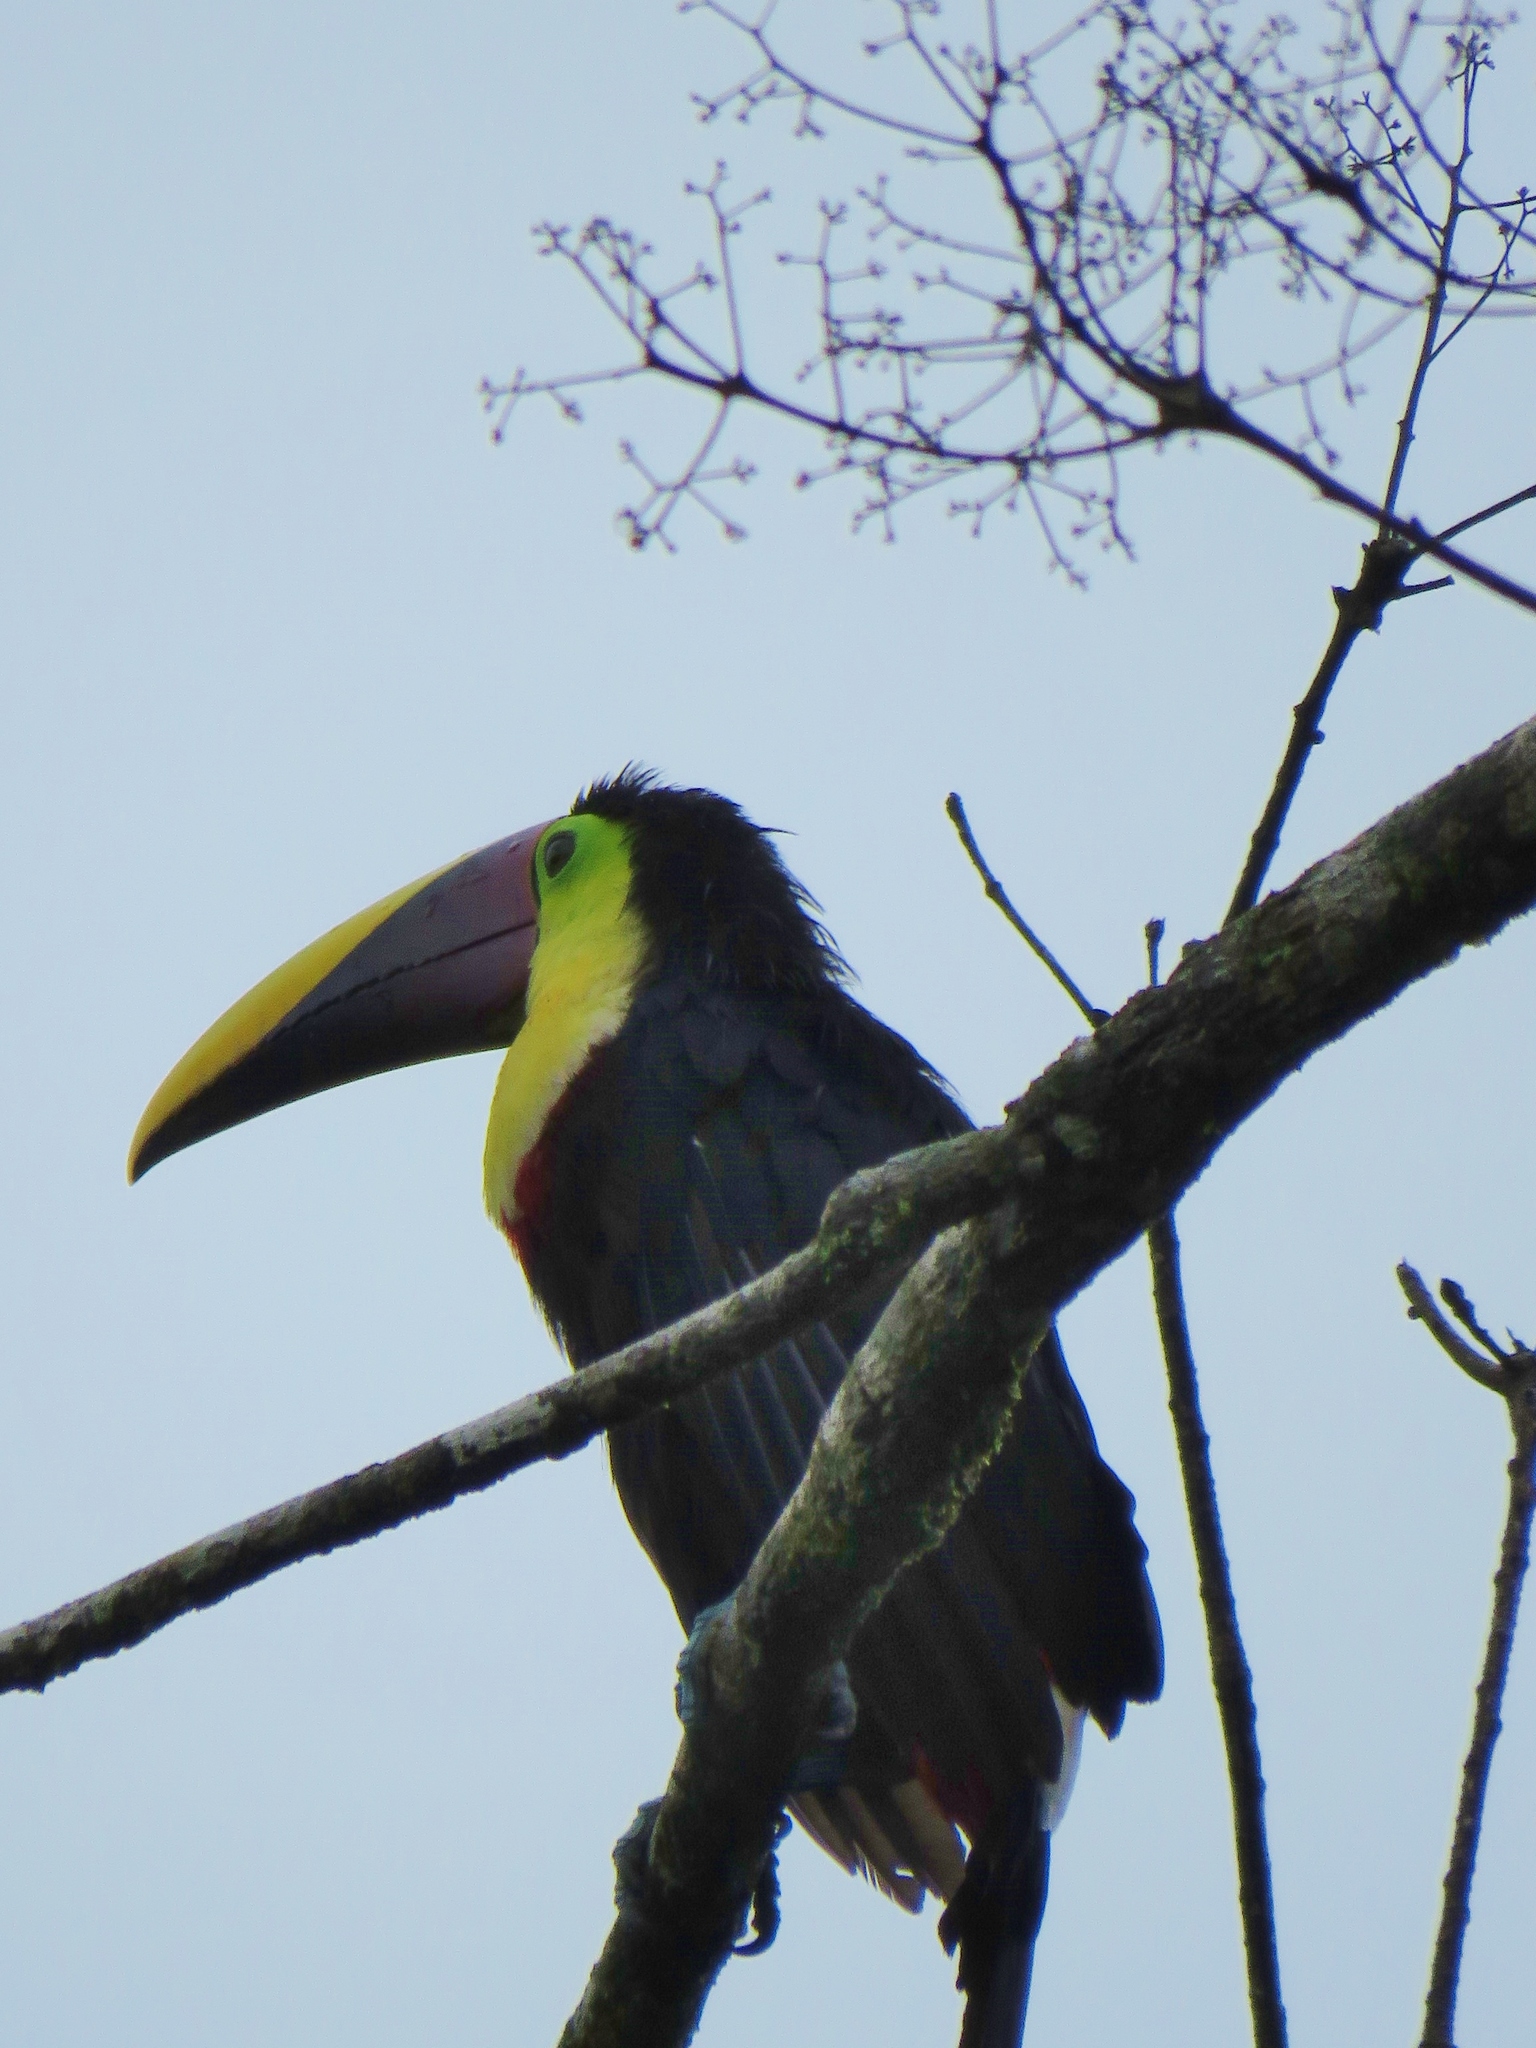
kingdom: Animalia
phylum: Chordata
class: Aves
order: Piciformes
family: Ramphastidae
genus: Ramphastos
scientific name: Ramphastos ambiguus
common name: Yellow-throated toucan
